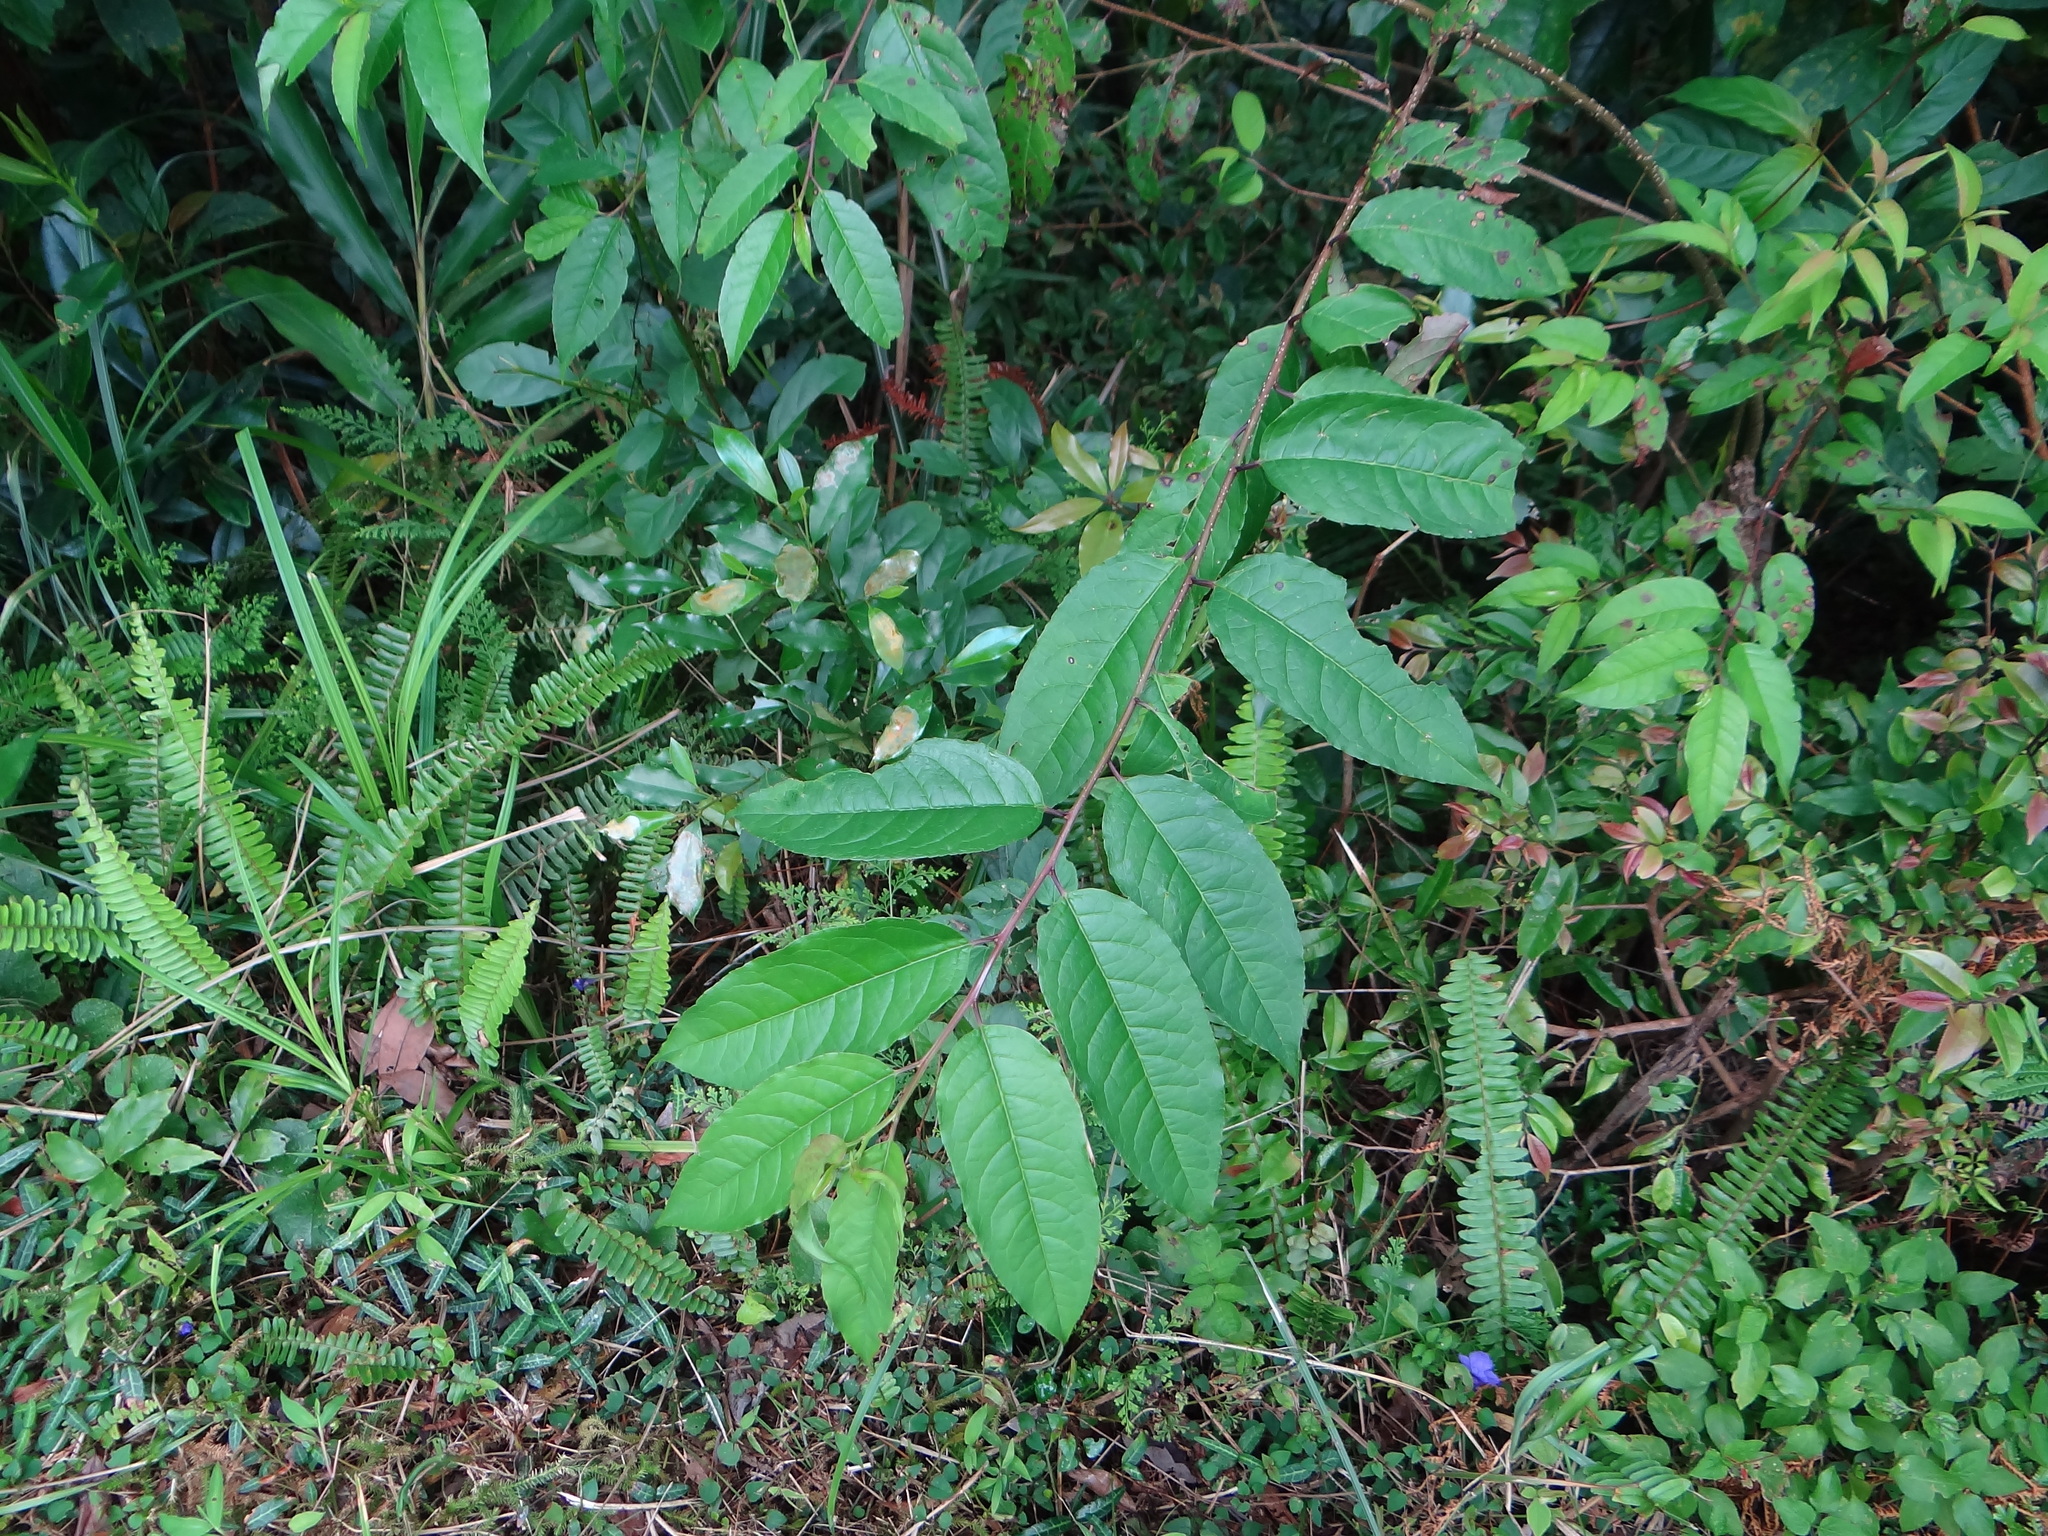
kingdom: Plantae
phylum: Tracheophyta
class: Magnoliopsida
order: Aquifoliales
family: Aquifoliaceae
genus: Ilex
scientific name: Ilex micrococca
